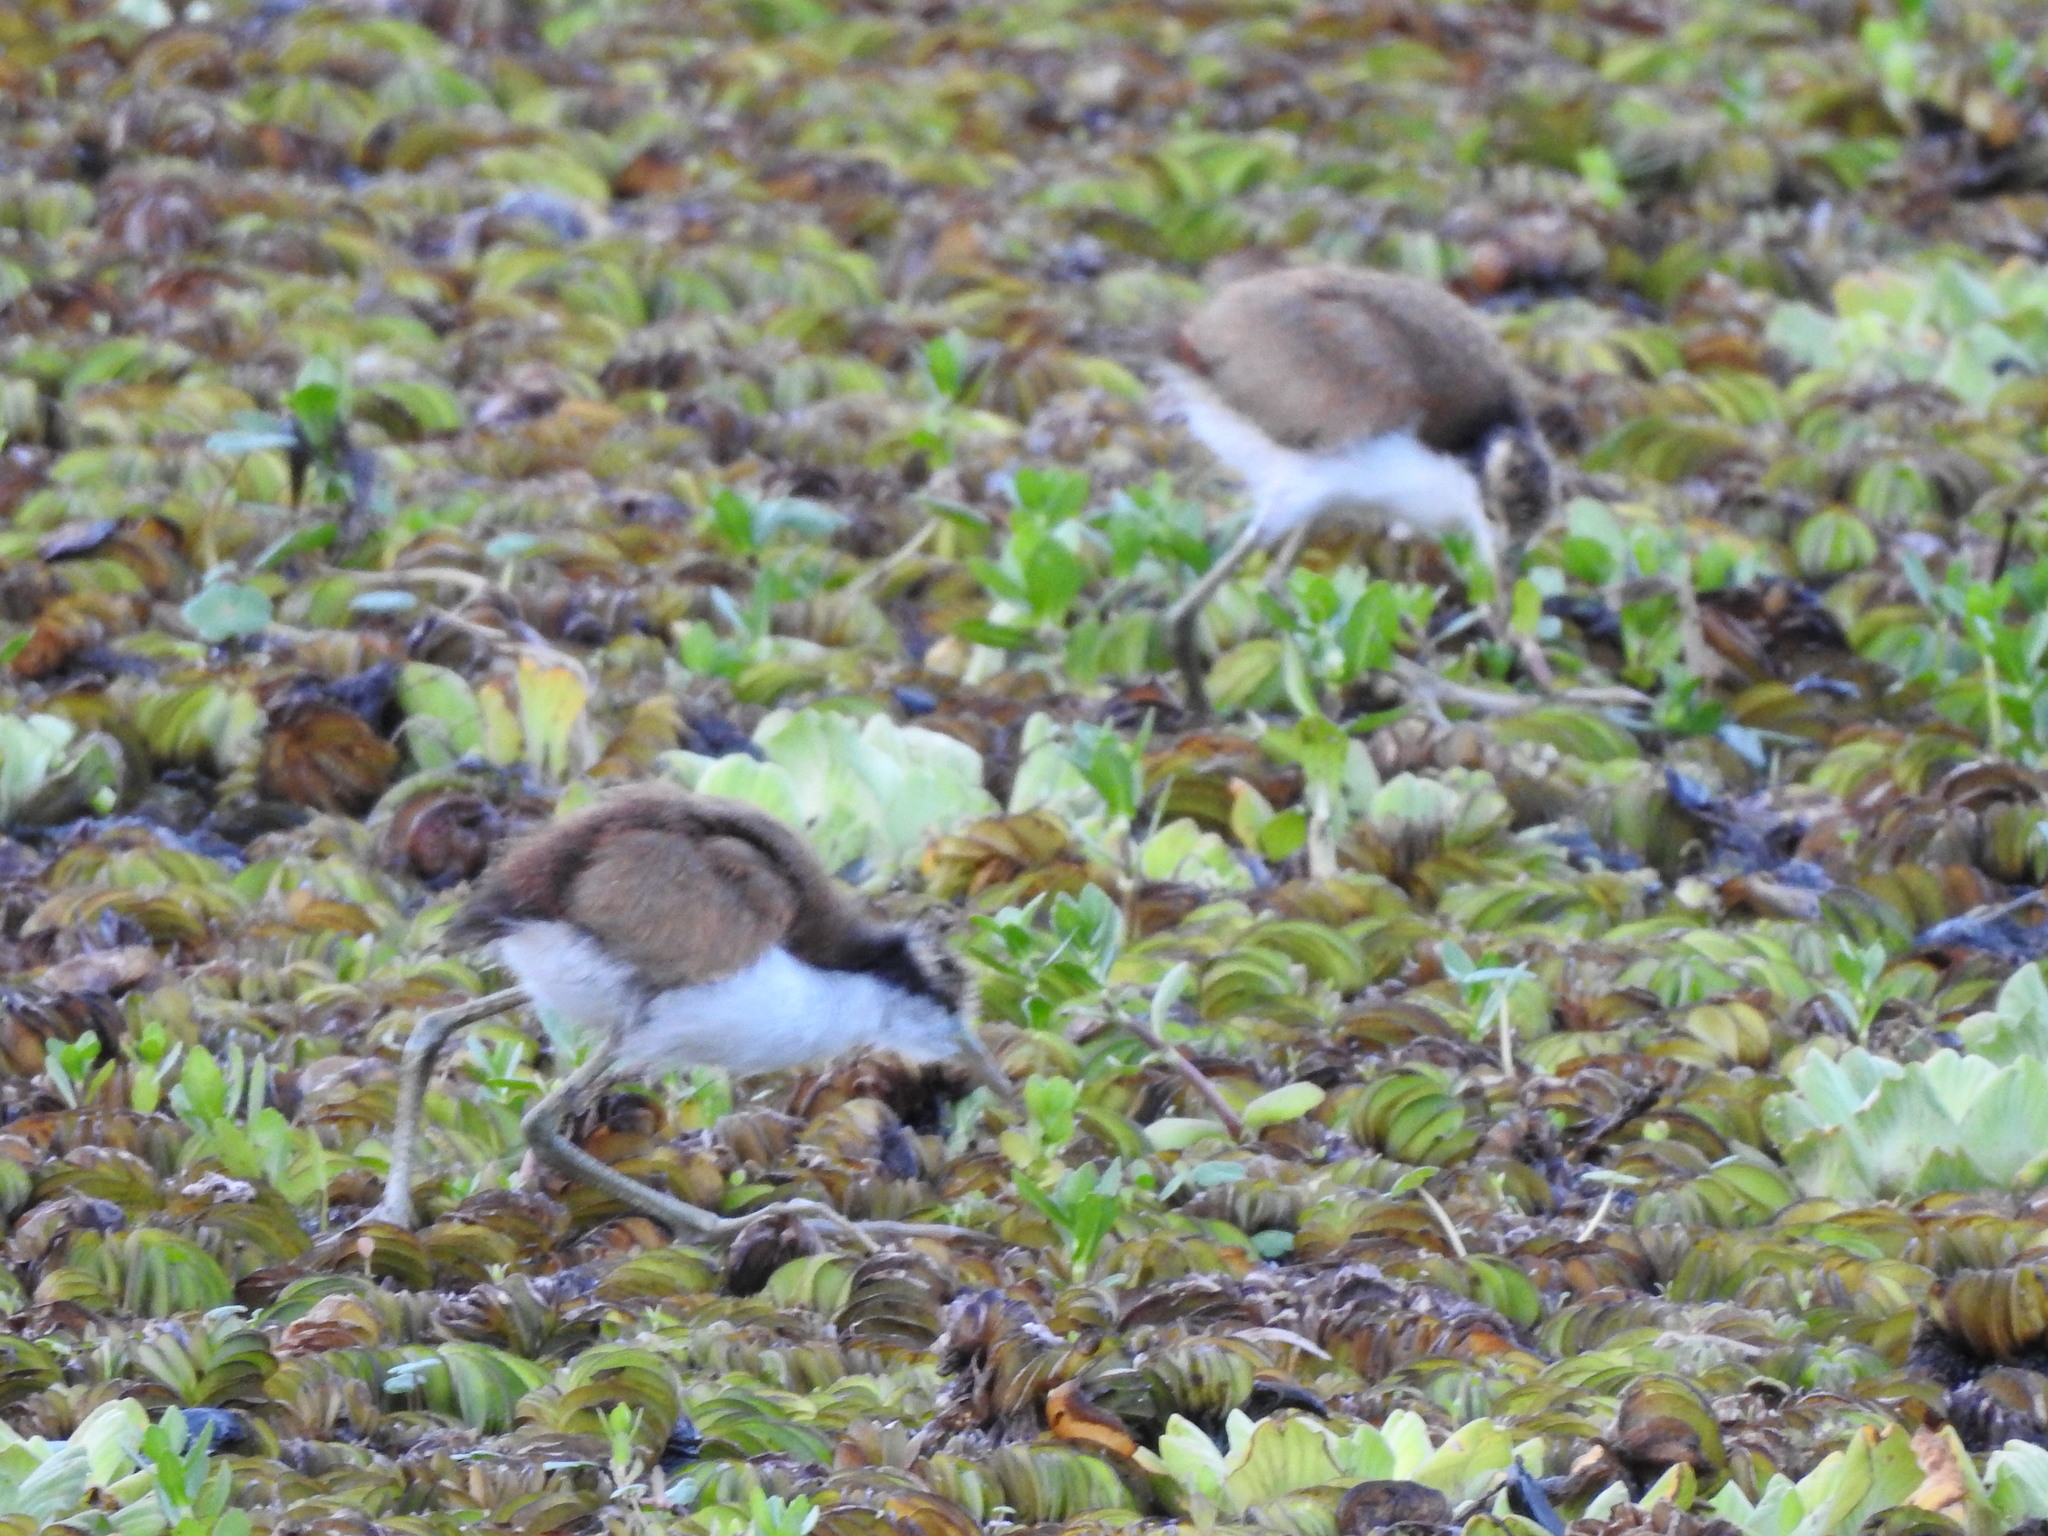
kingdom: Animalia
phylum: Chordata
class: Aves
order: Charadriiformes
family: Jacanidae
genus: Jacana
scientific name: Jacana jacana
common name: Wattled jacana
